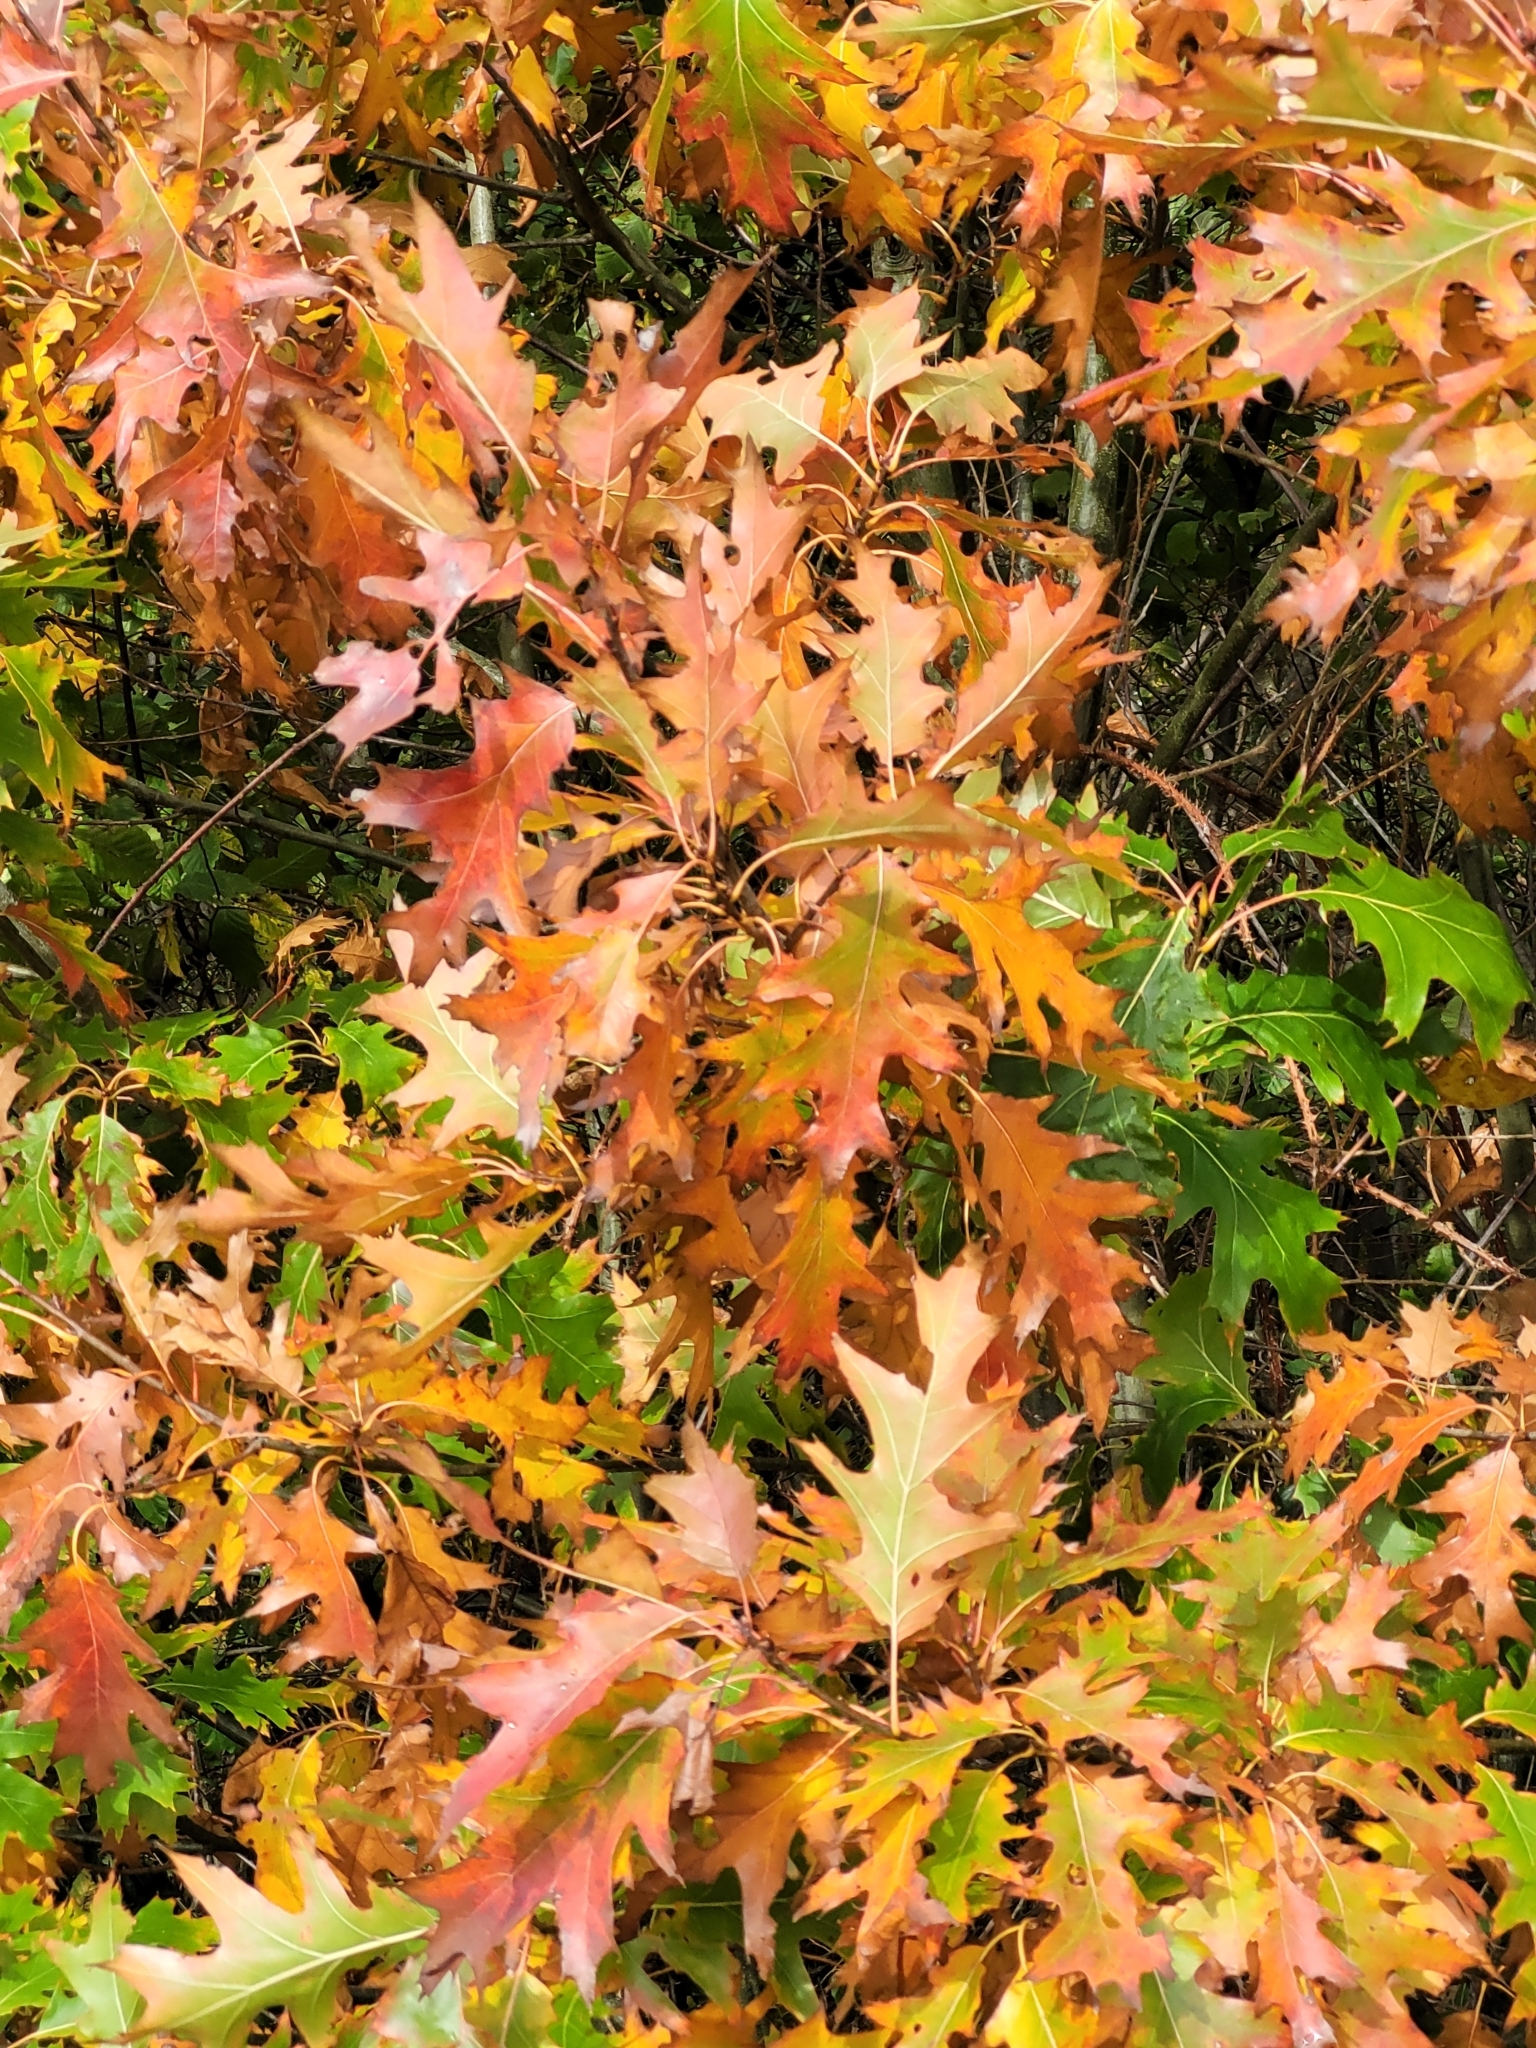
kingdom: Plantae
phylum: Tracheophyta
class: Magnoliopsida
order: Fagales
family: Fagaceae
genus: Quercus
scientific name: Quercus rubra
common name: Red oak
